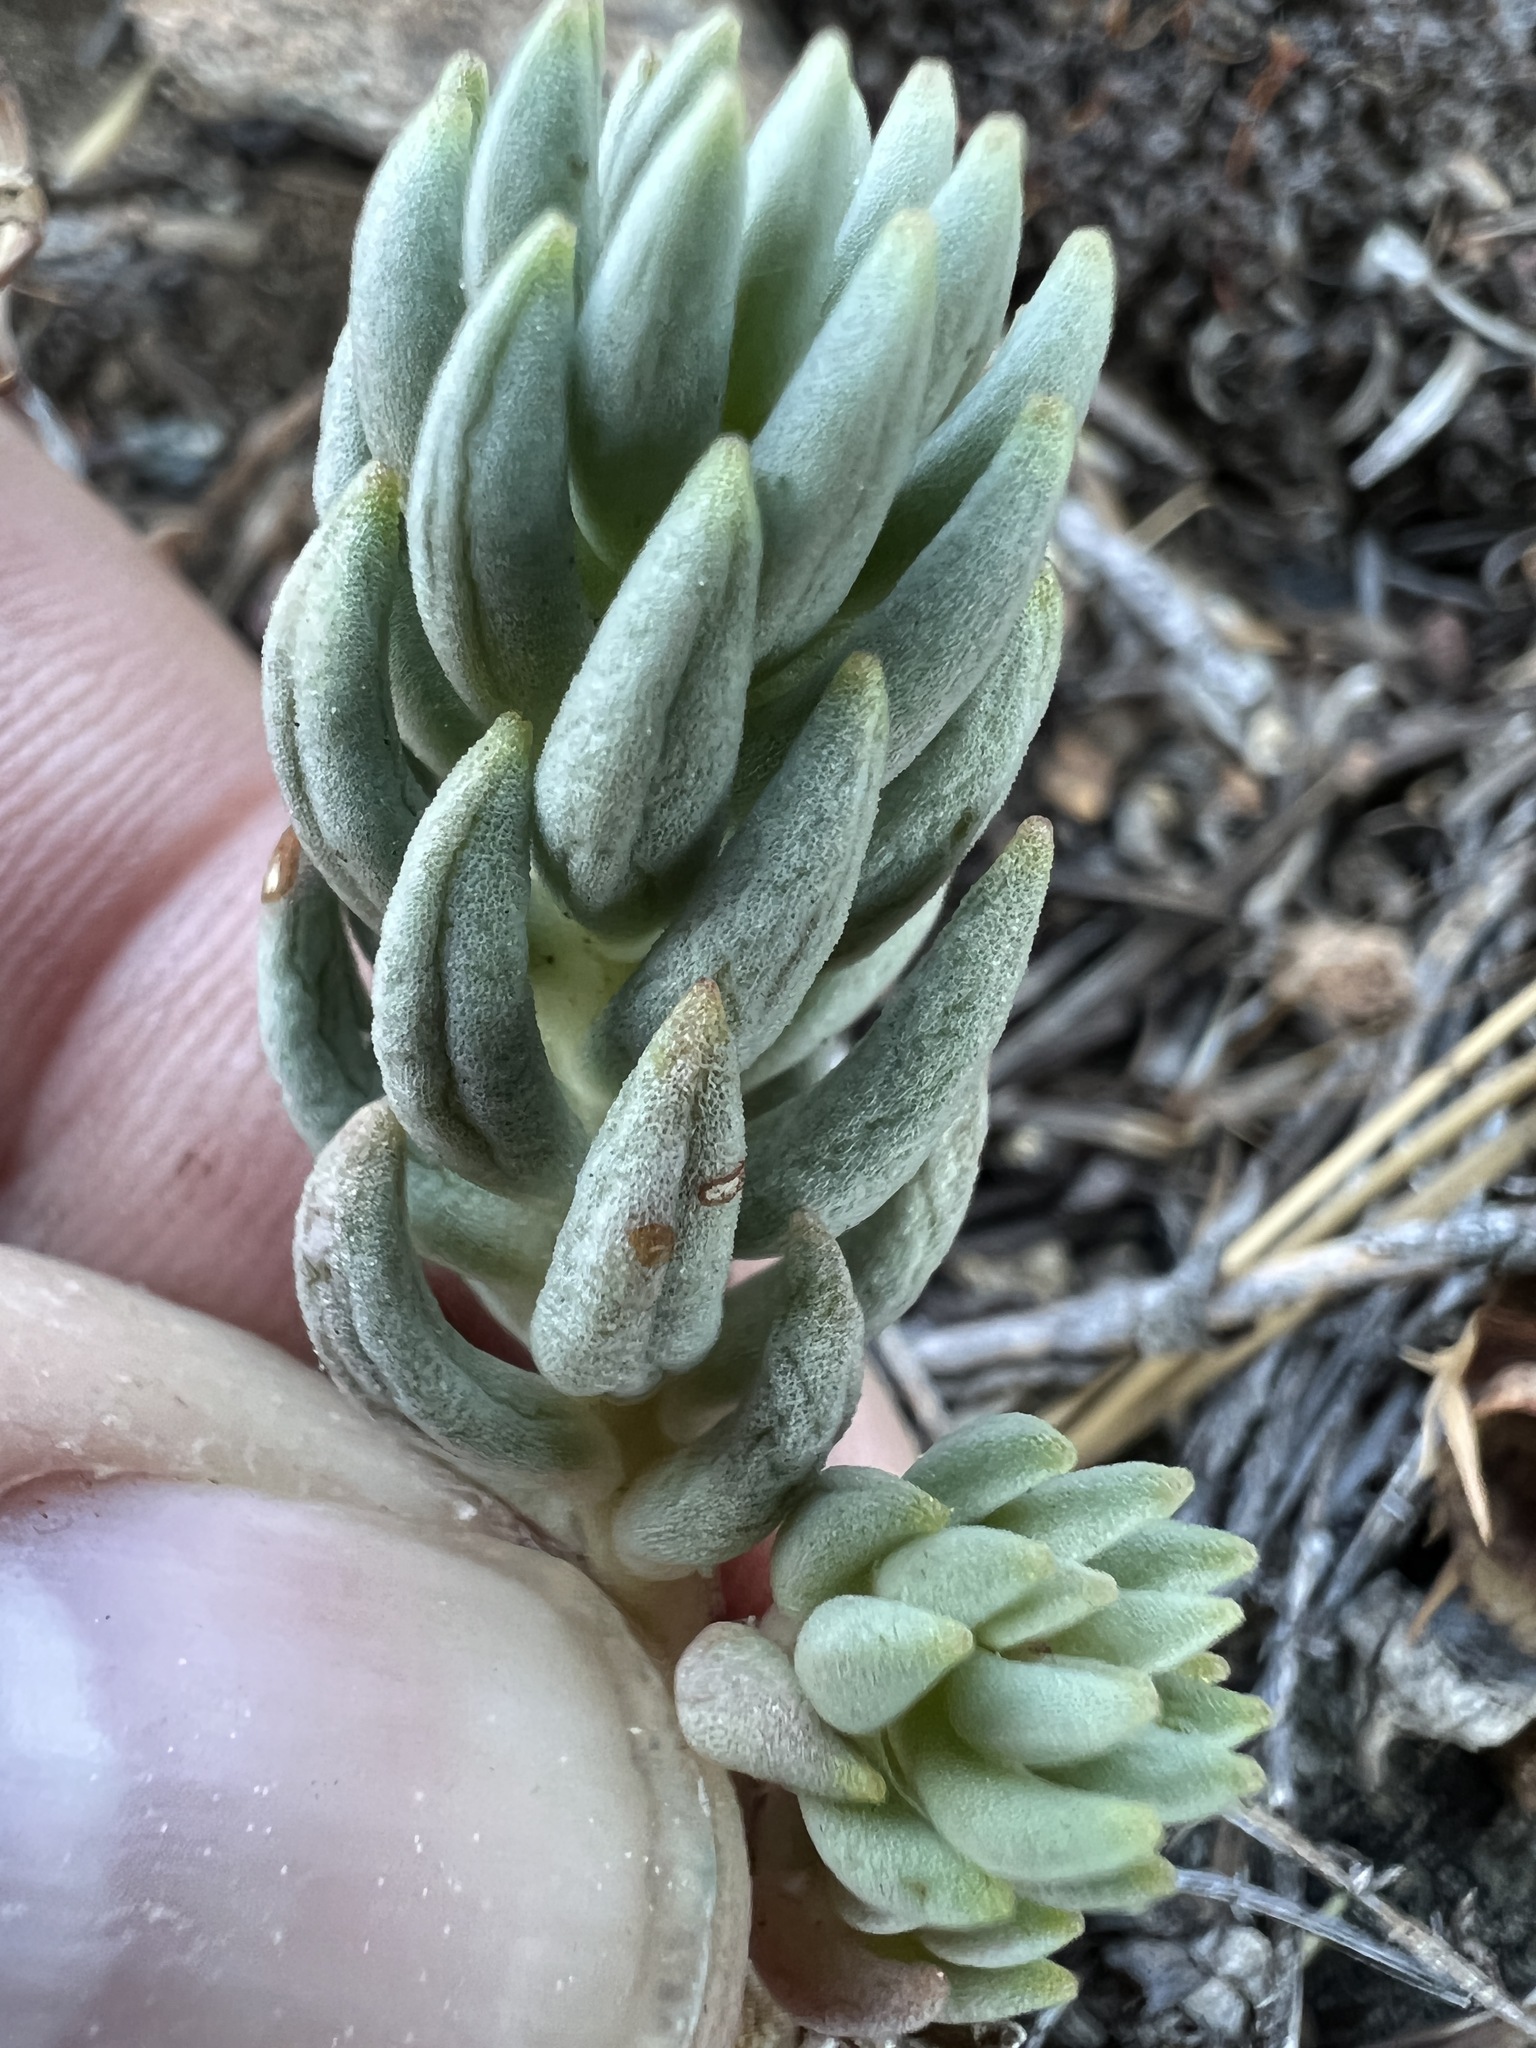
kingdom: Plantae
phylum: Tracheophyta
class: Magnoliopsida
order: Saxifragales
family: Crassulaceae
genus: Sedum
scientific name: Sedum lanceolatum
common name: Common stonecrop
